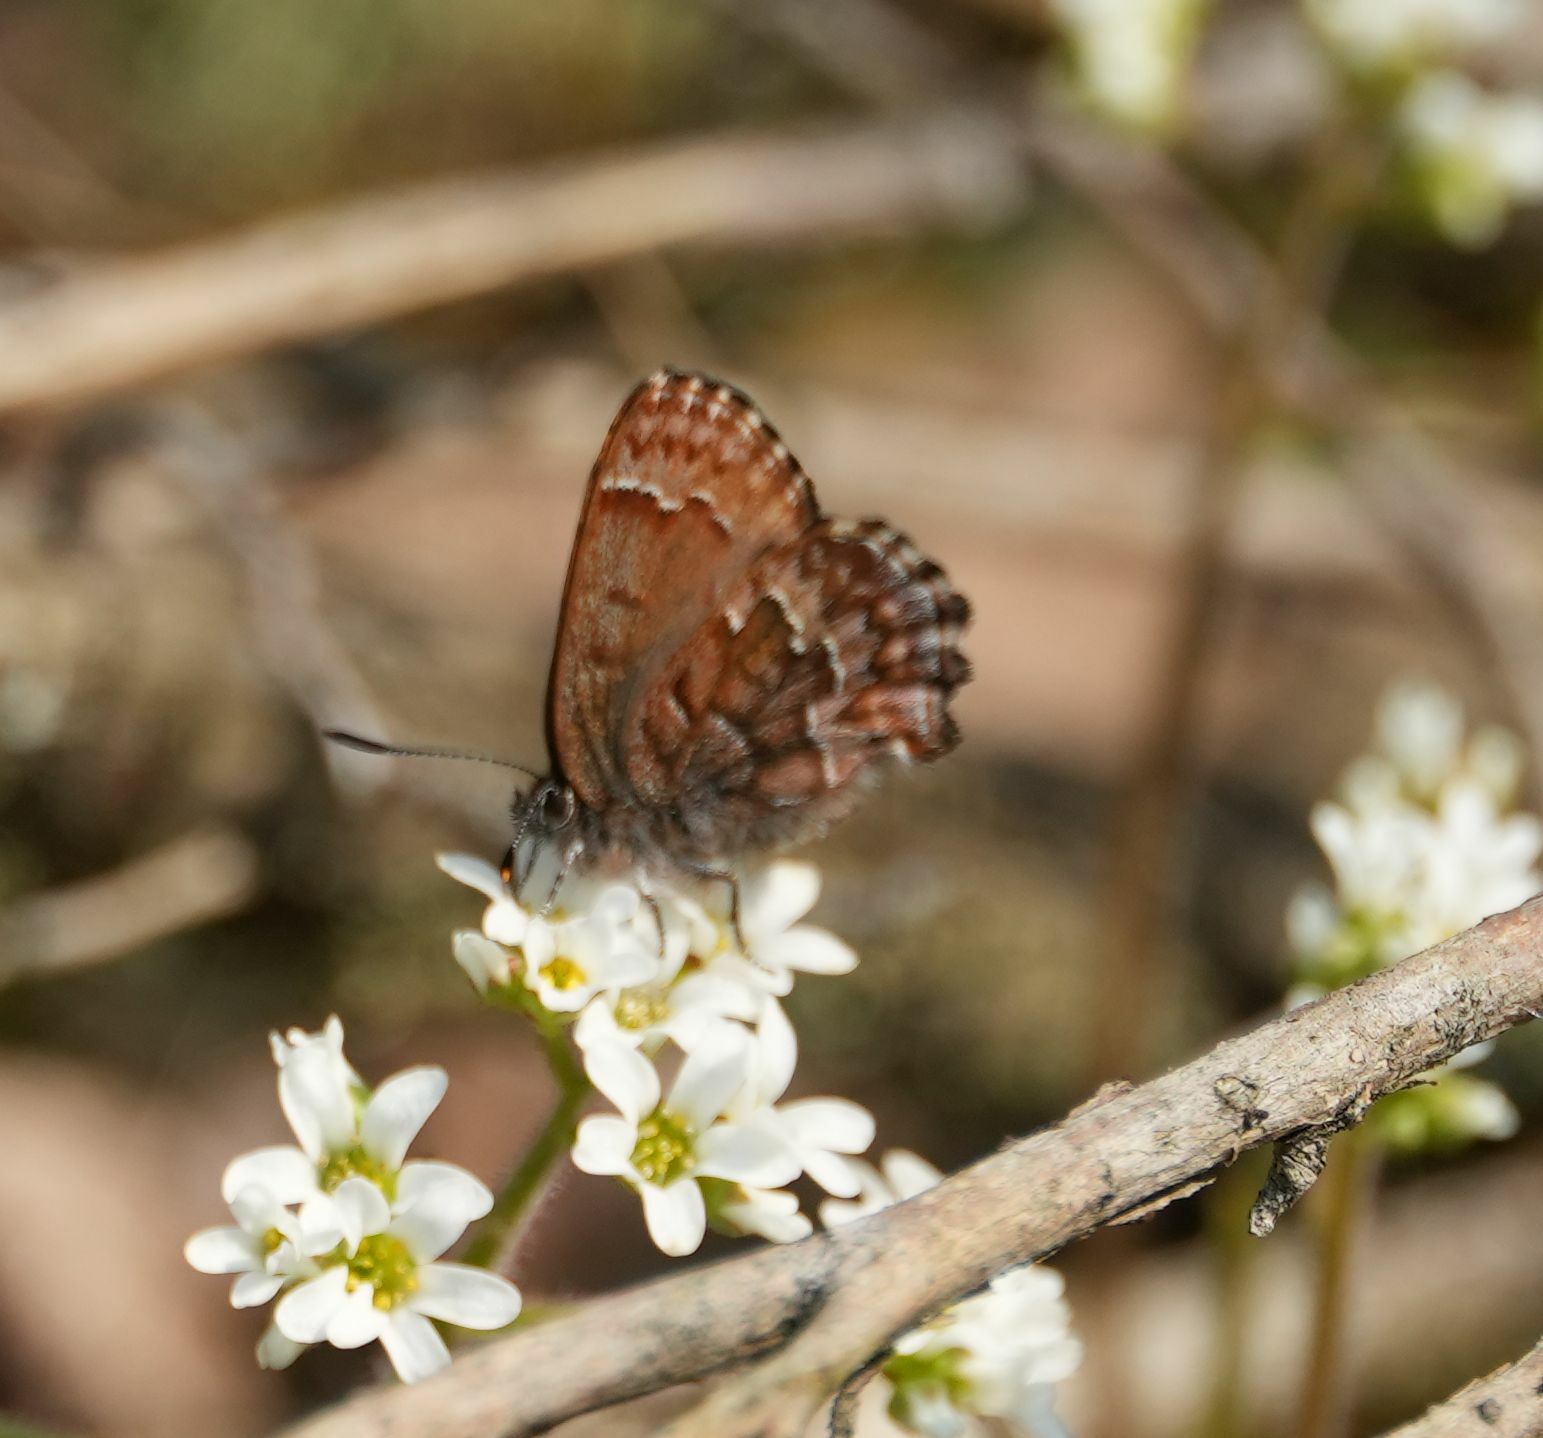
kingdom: Animalia
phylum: Arthropoda
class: Insecta
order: Lepidoptera
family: Lycaenidae
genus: Incisalia
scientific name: Incisalia niphon
